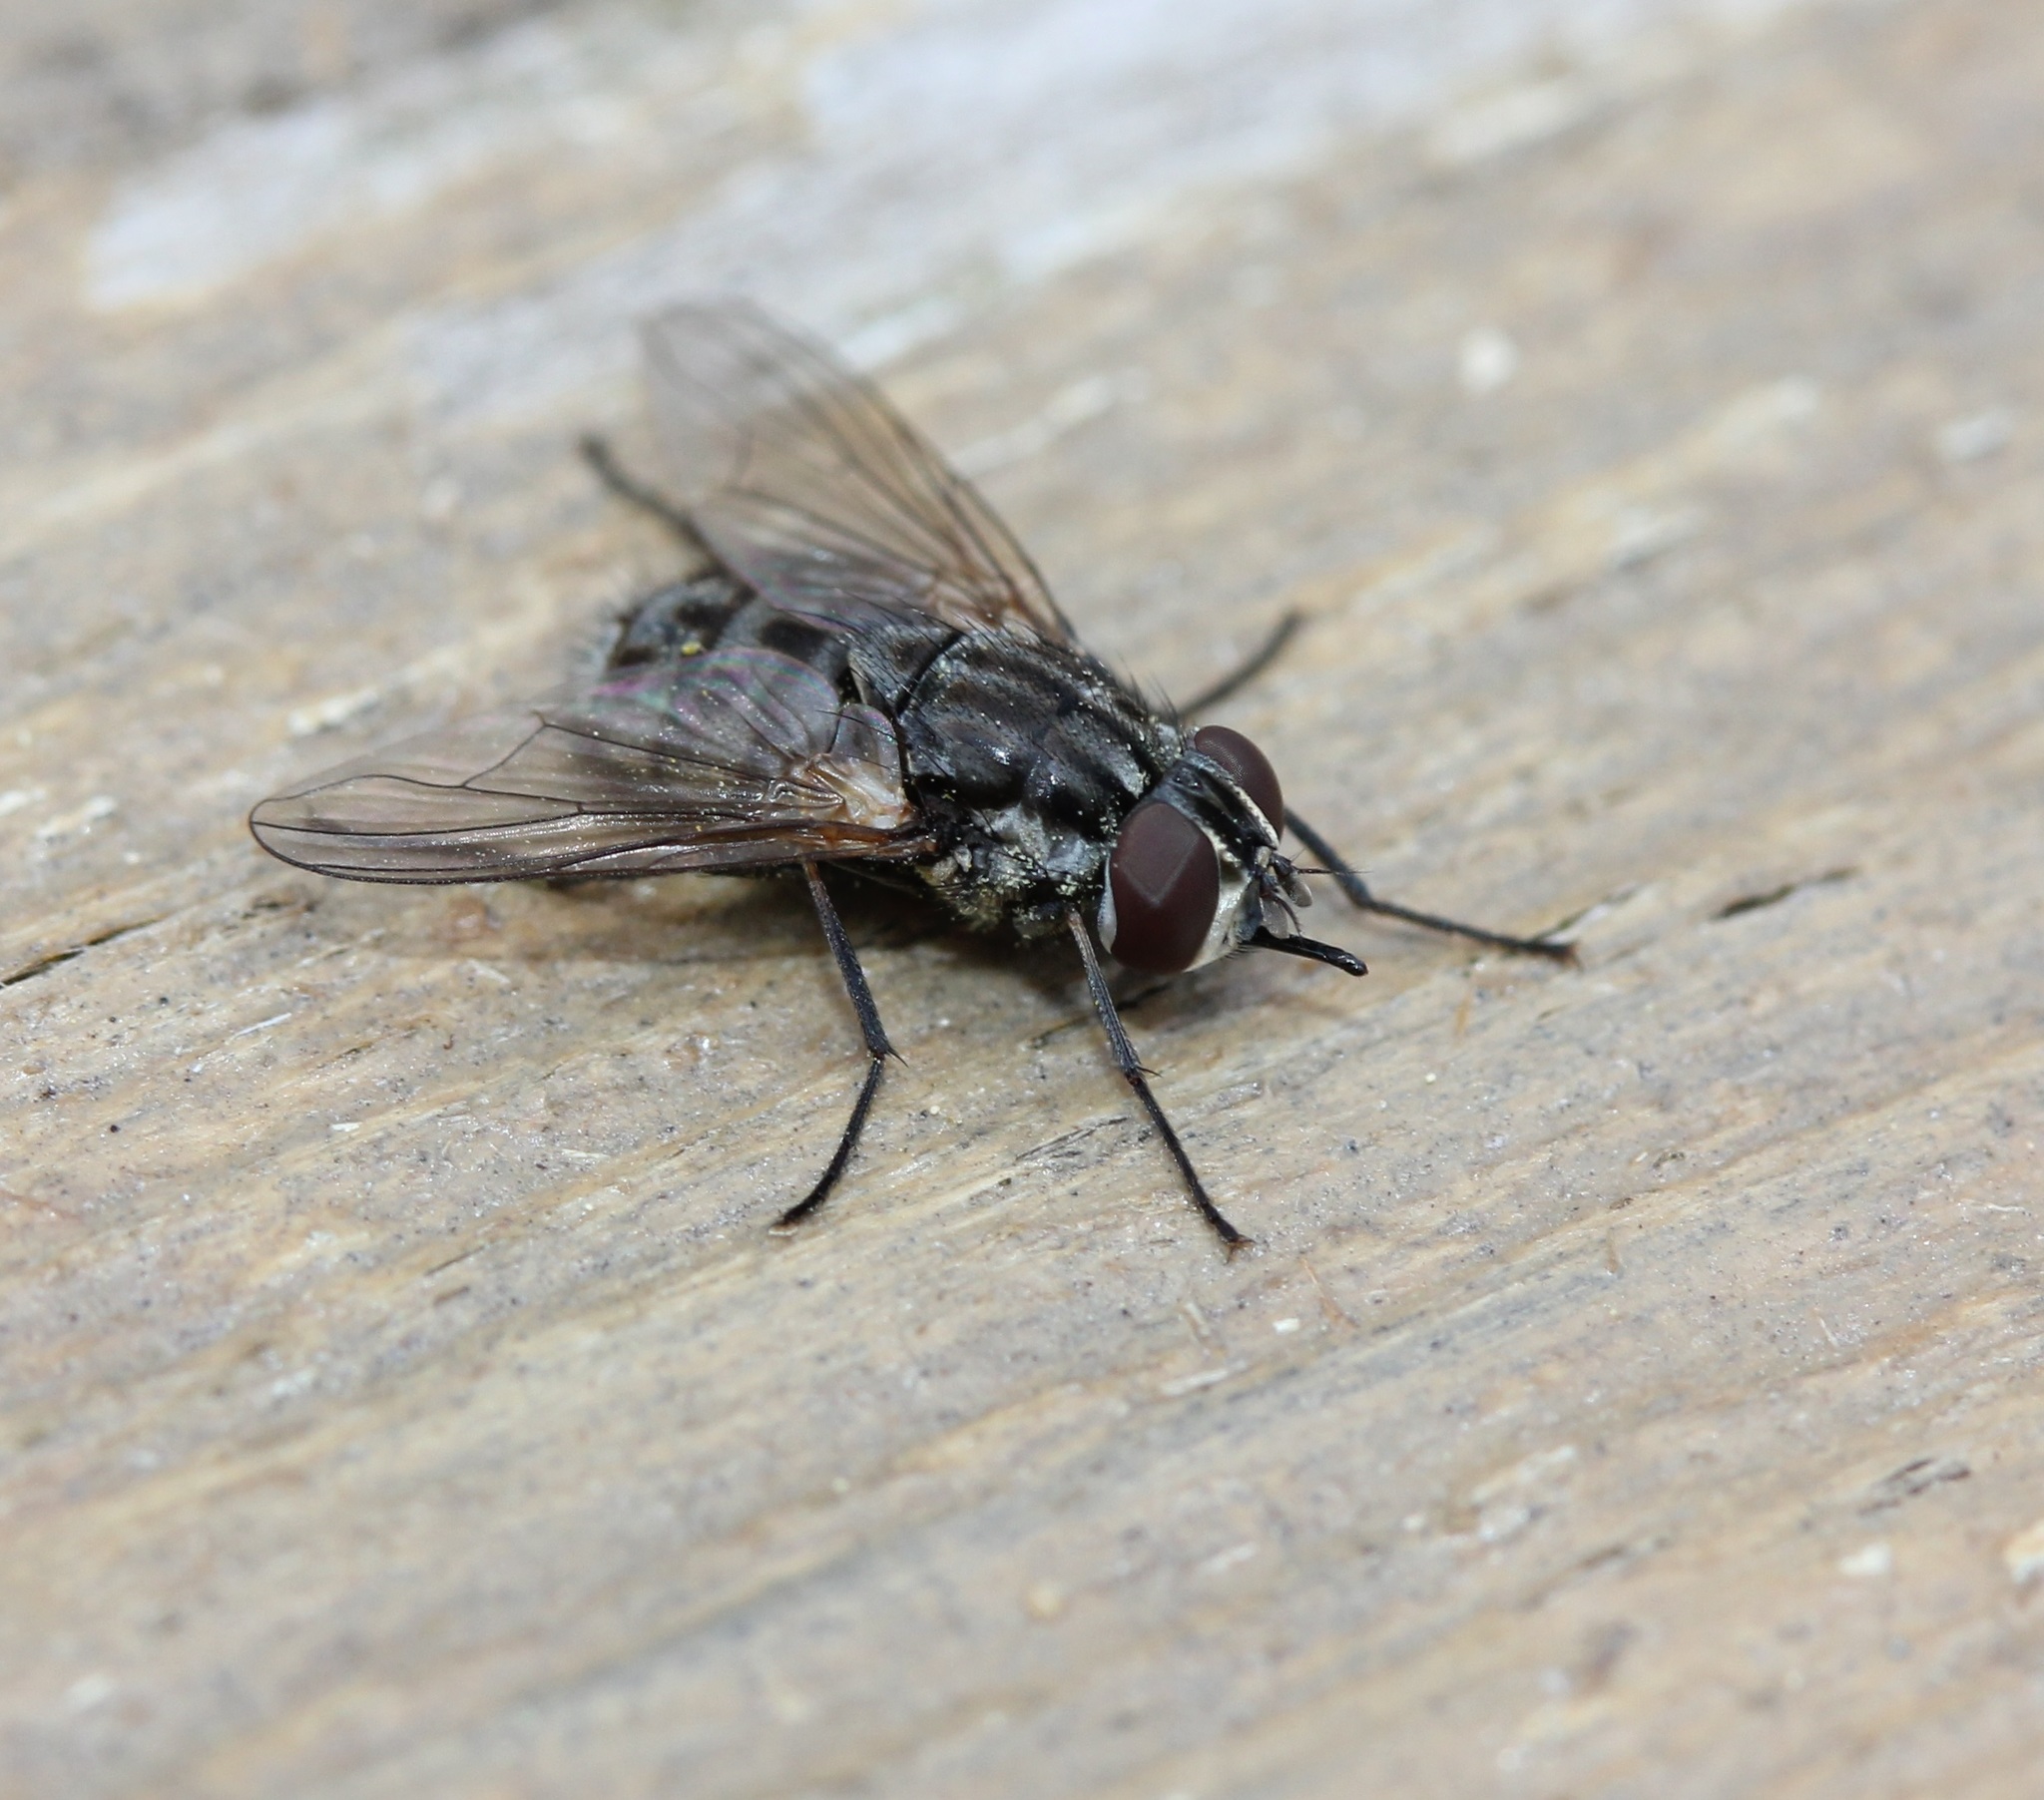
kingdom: Animalia
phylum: Arthropoda
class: Insecta
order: Diptera
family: Muscidae
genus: Stomoxys
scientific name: Stomoxys calcitrans
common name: Stable fly
